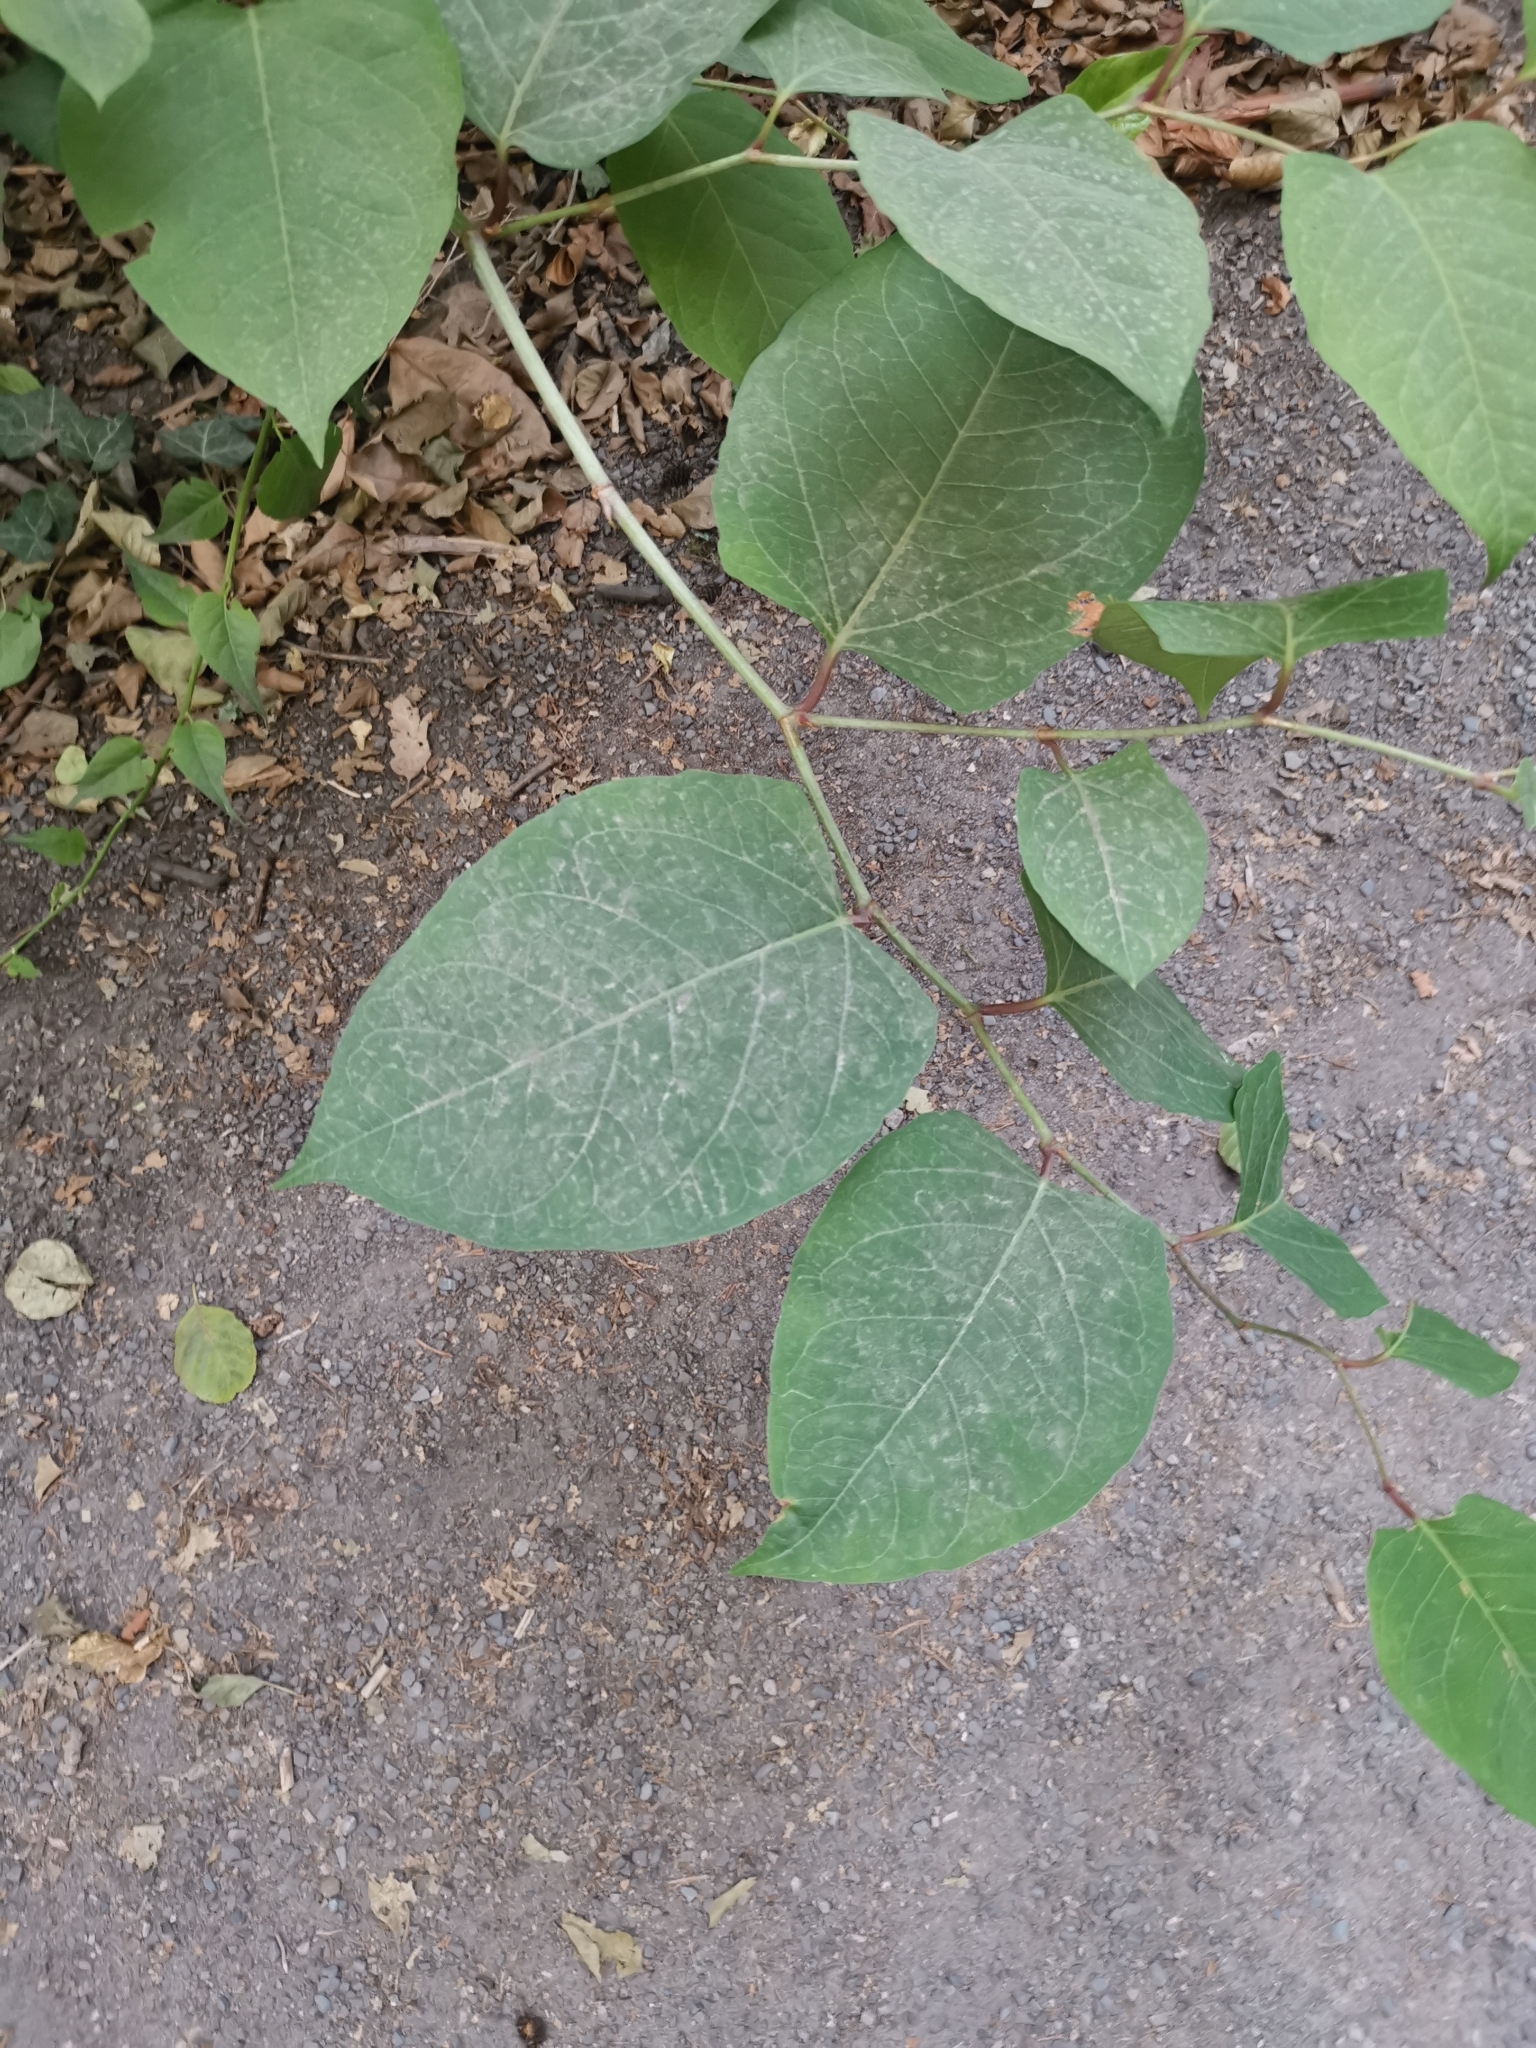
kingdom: Plantae
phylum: Tracheophyta
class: Magnoliopsida
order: Caryophyllales
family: Polygonaceae
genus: Reynoutria
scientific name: Reynoutria japonica
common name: Japanese knotweed
